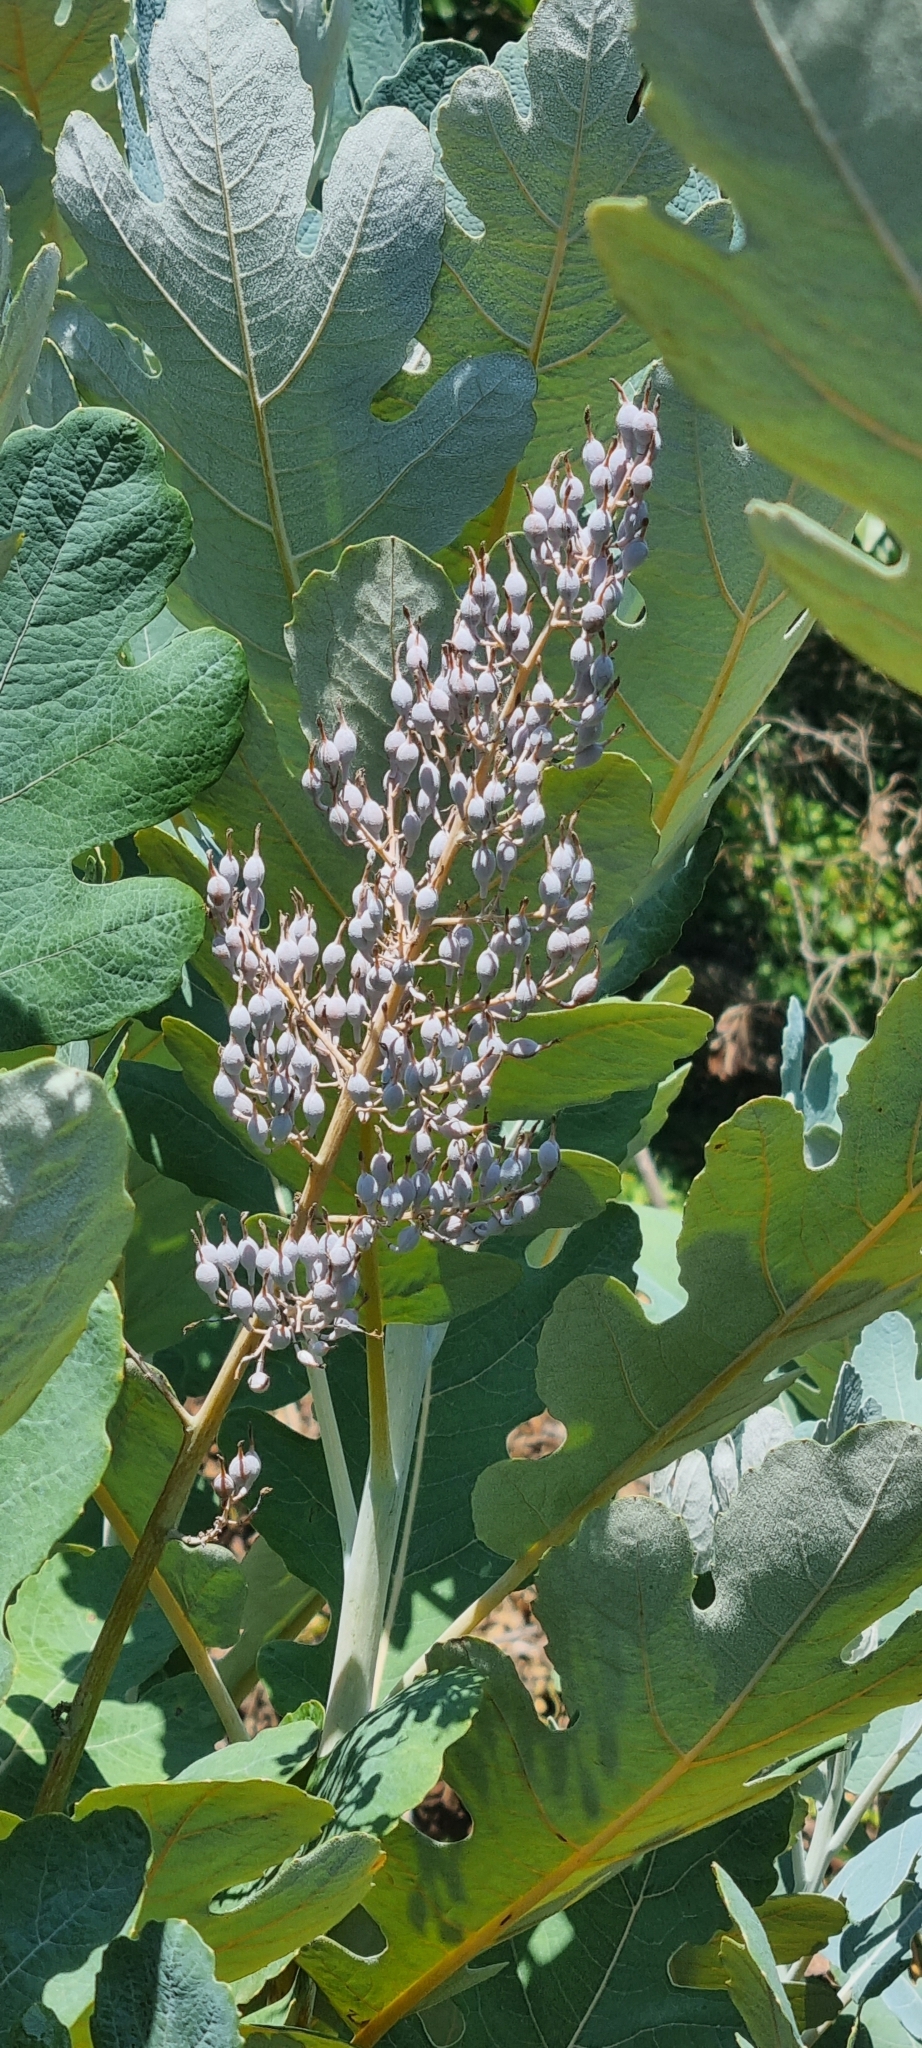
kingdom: Plantae
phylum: Tracheophyta
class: Magnoliopsida
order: Ranunculales
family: Papaveraceae
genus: Bocconia
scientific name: Bocconia frutescens
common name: Tree poppy
